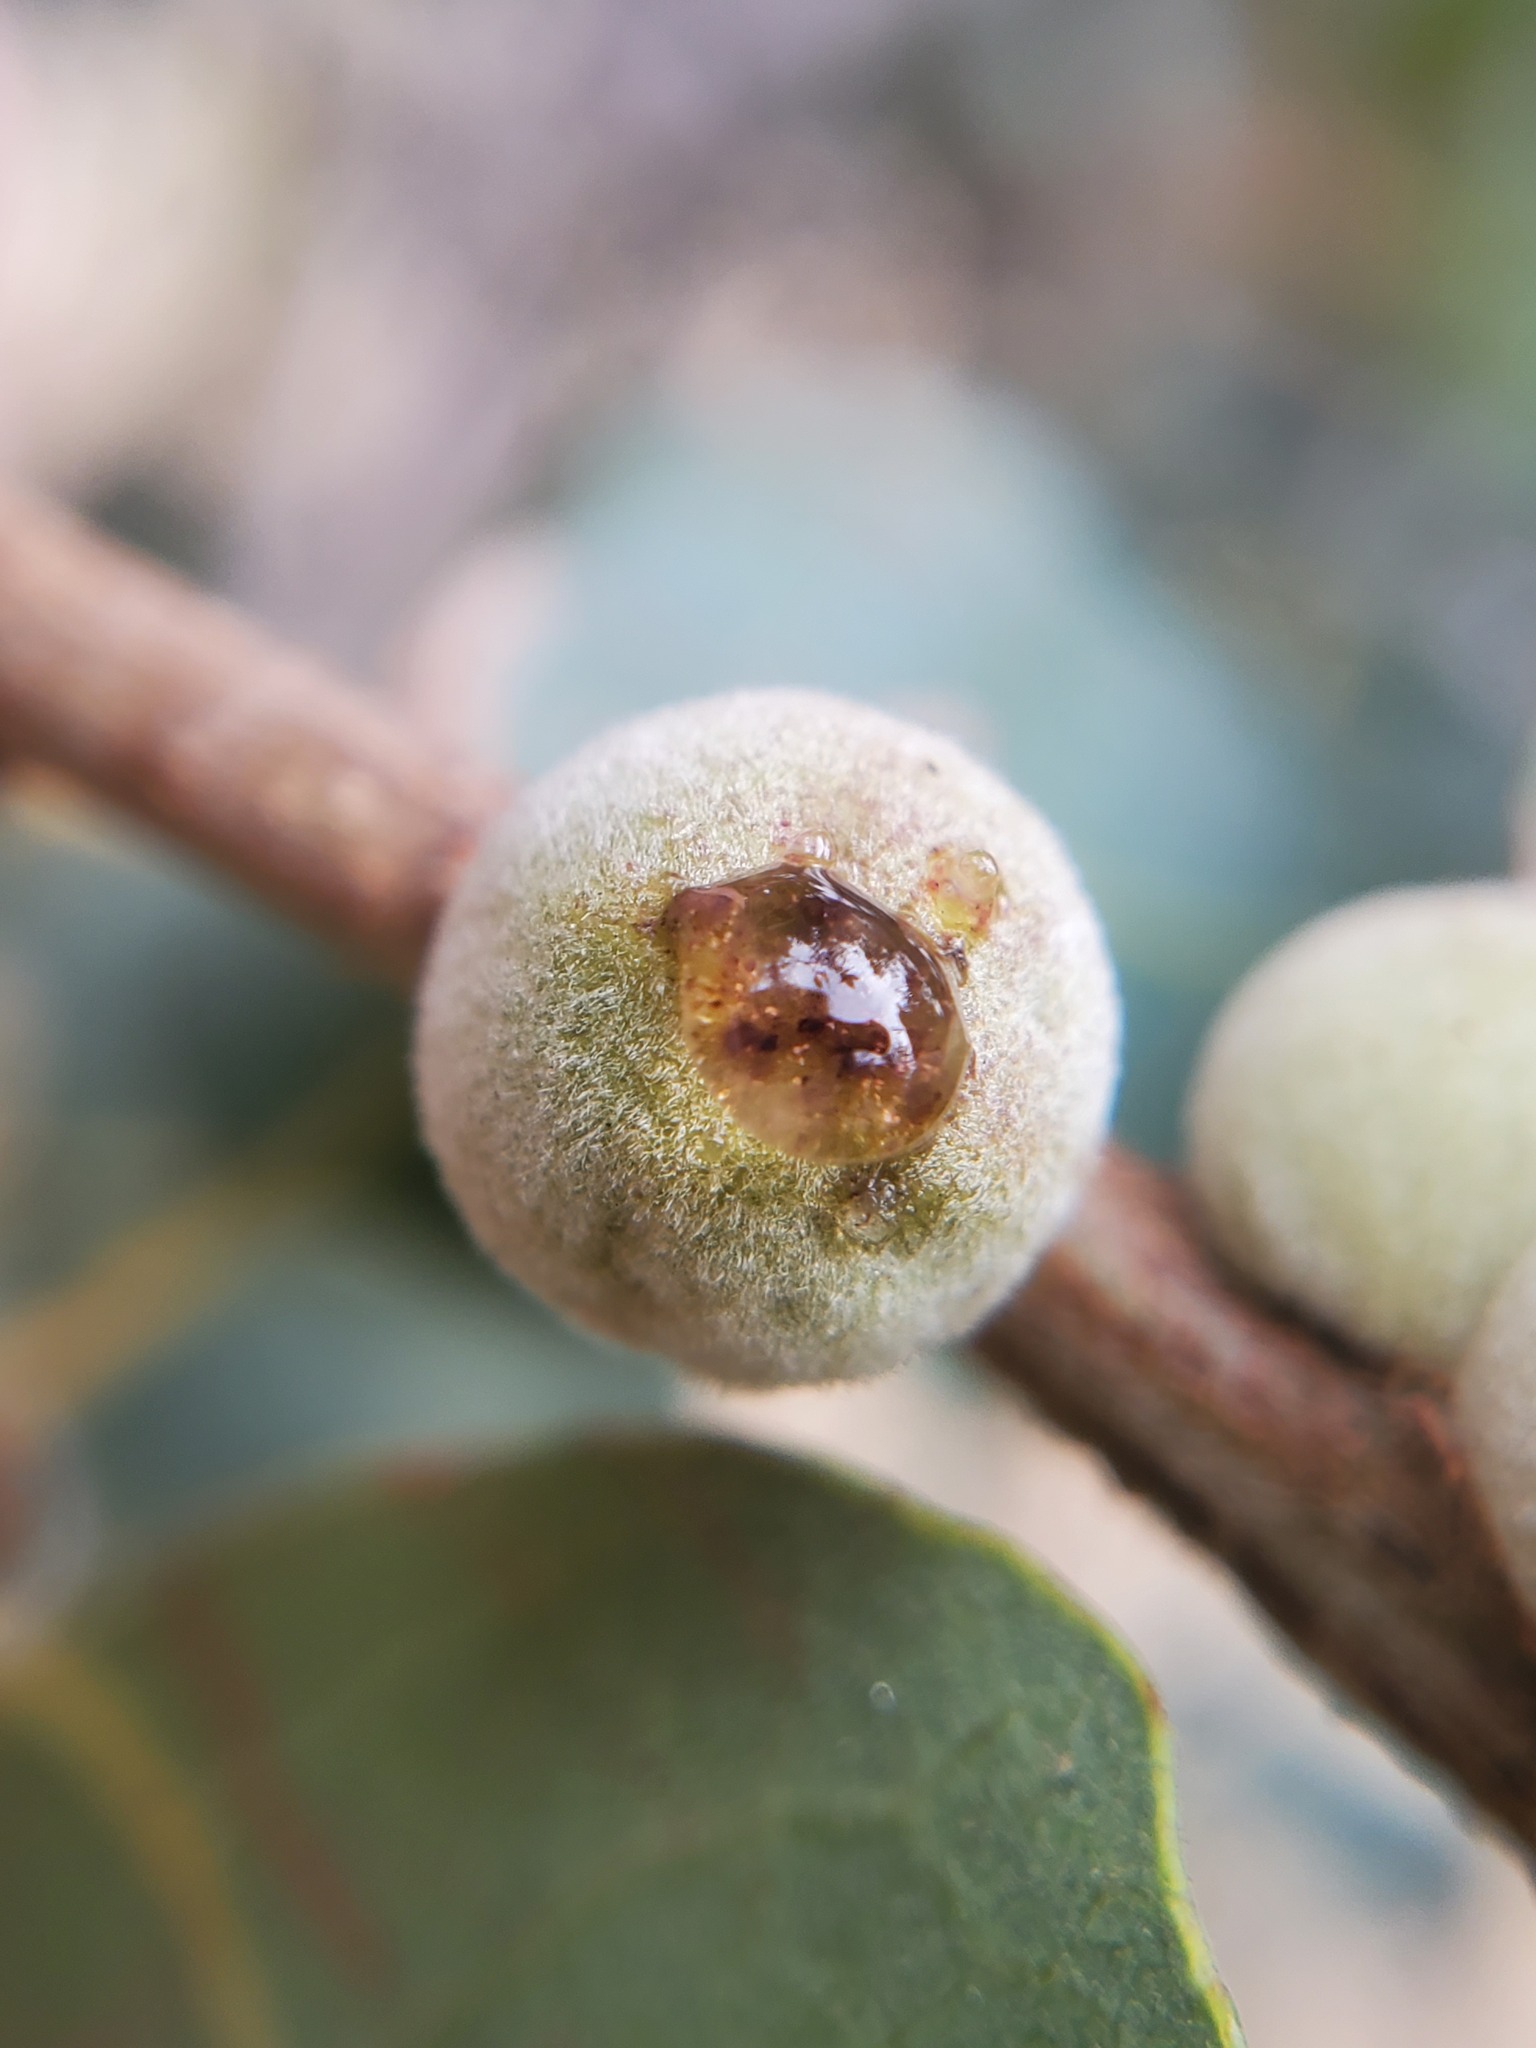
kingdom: Animalia
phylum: Arthropoda
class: Insecta
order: Hymenoptera
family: Cynipidae
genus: Disholcaspis
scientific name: Disholcaspis
